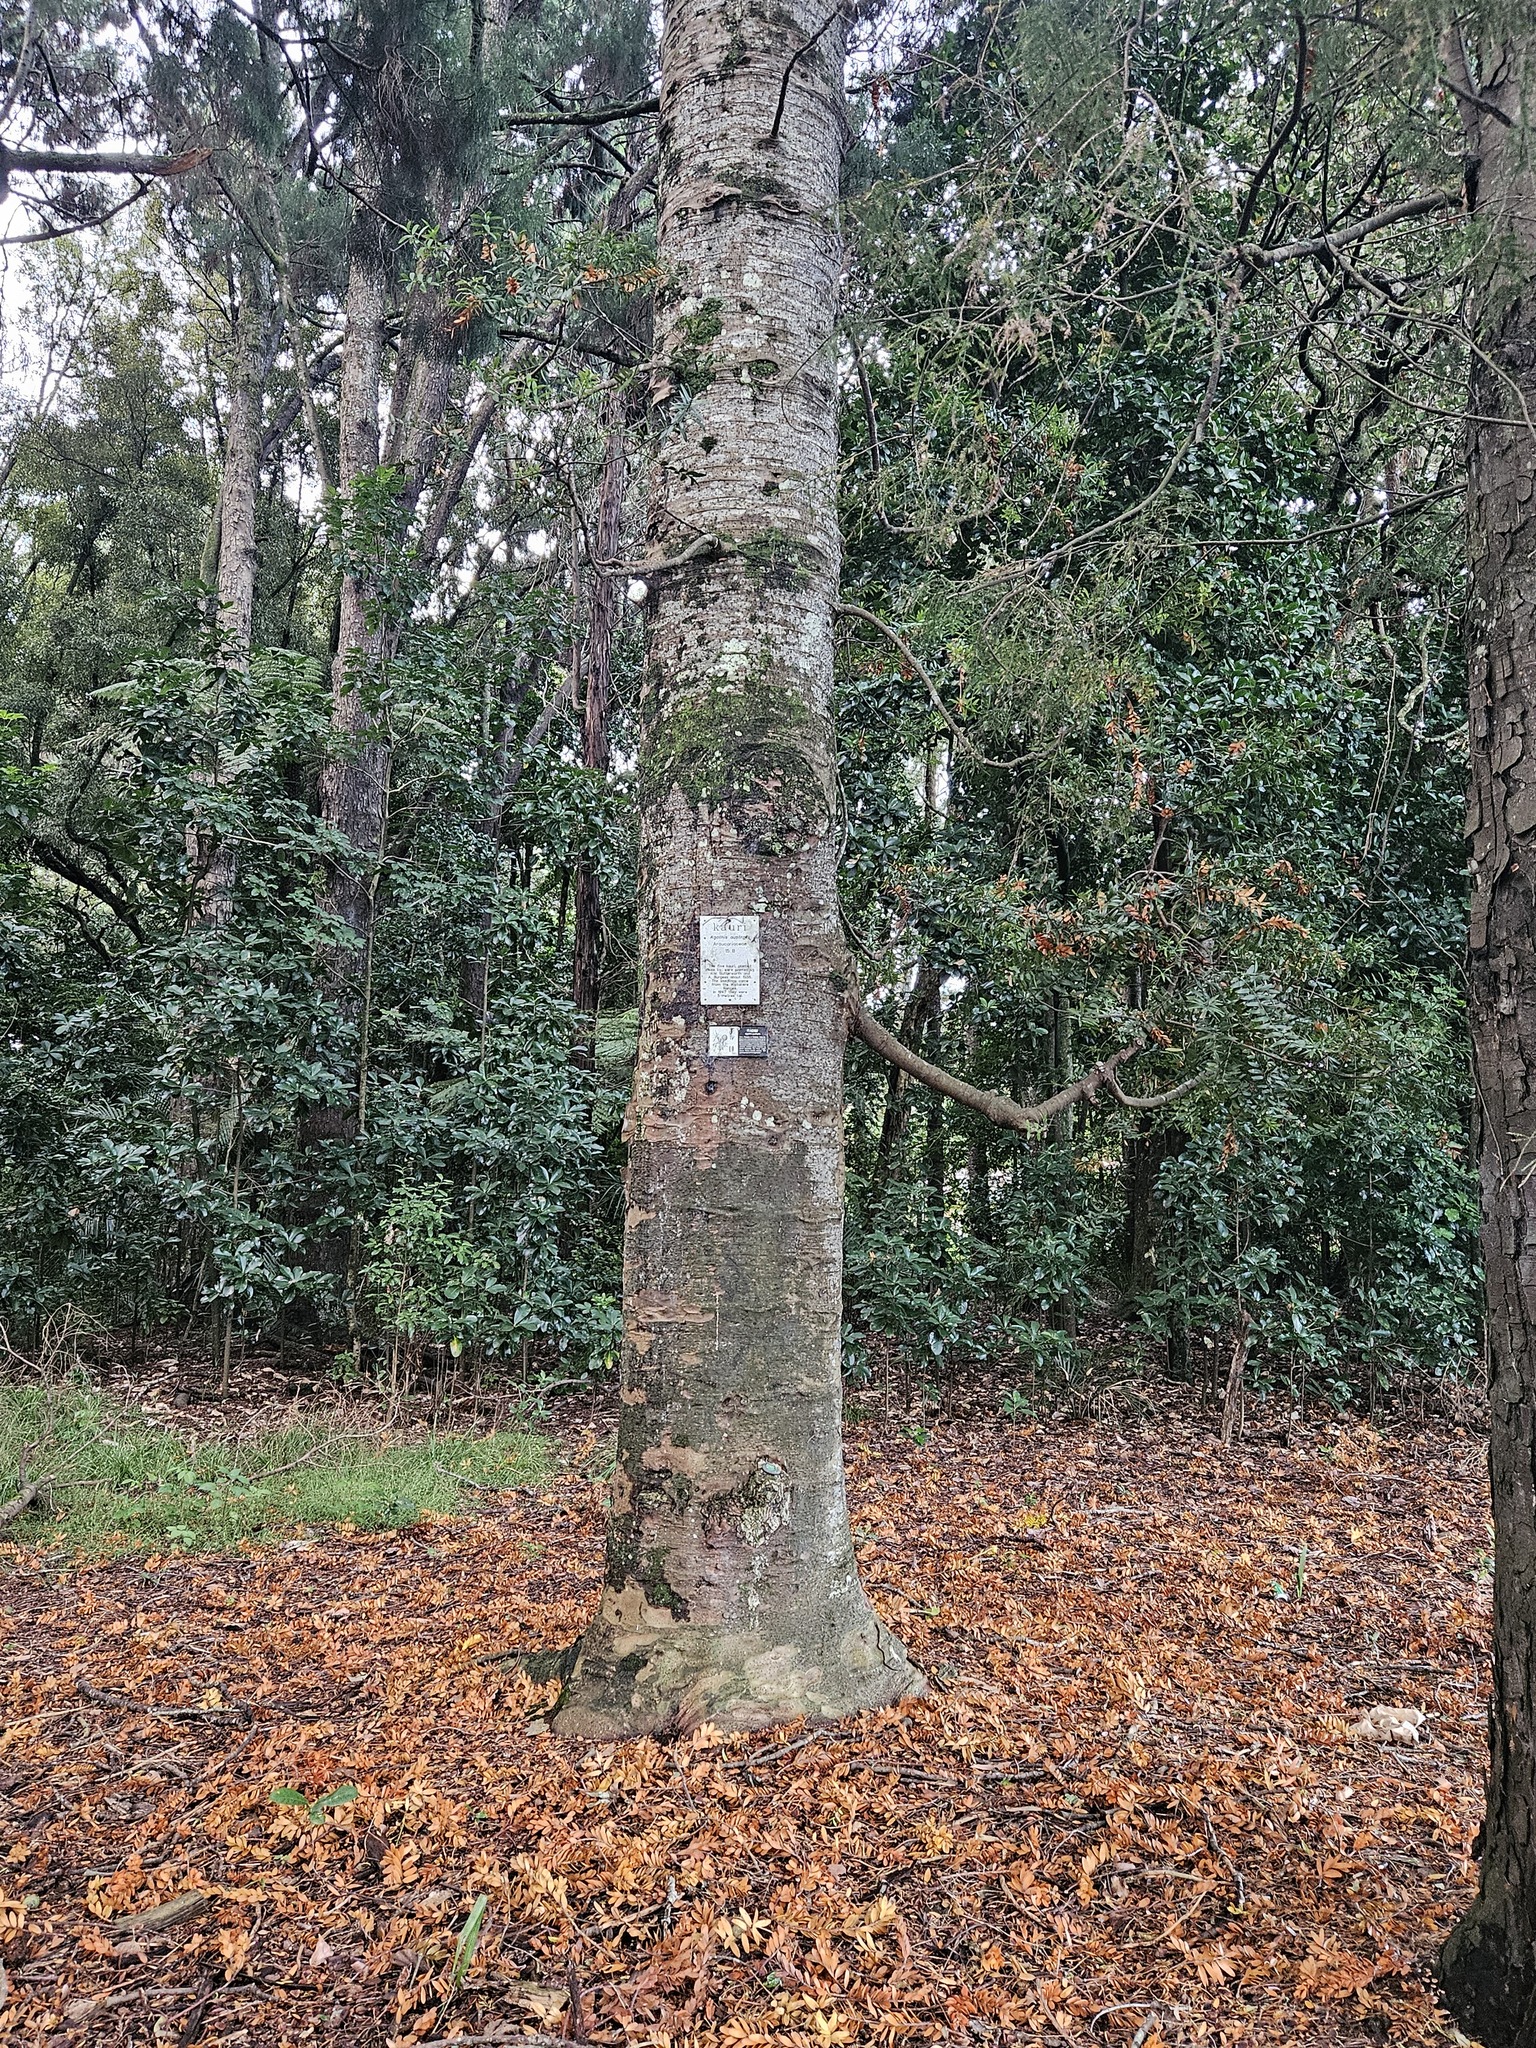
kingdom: Plantae
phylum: Tracheophyta
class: Pinopsida
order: Pinales
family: Araucariaceae
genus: Agathis
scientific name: Agathis australis
